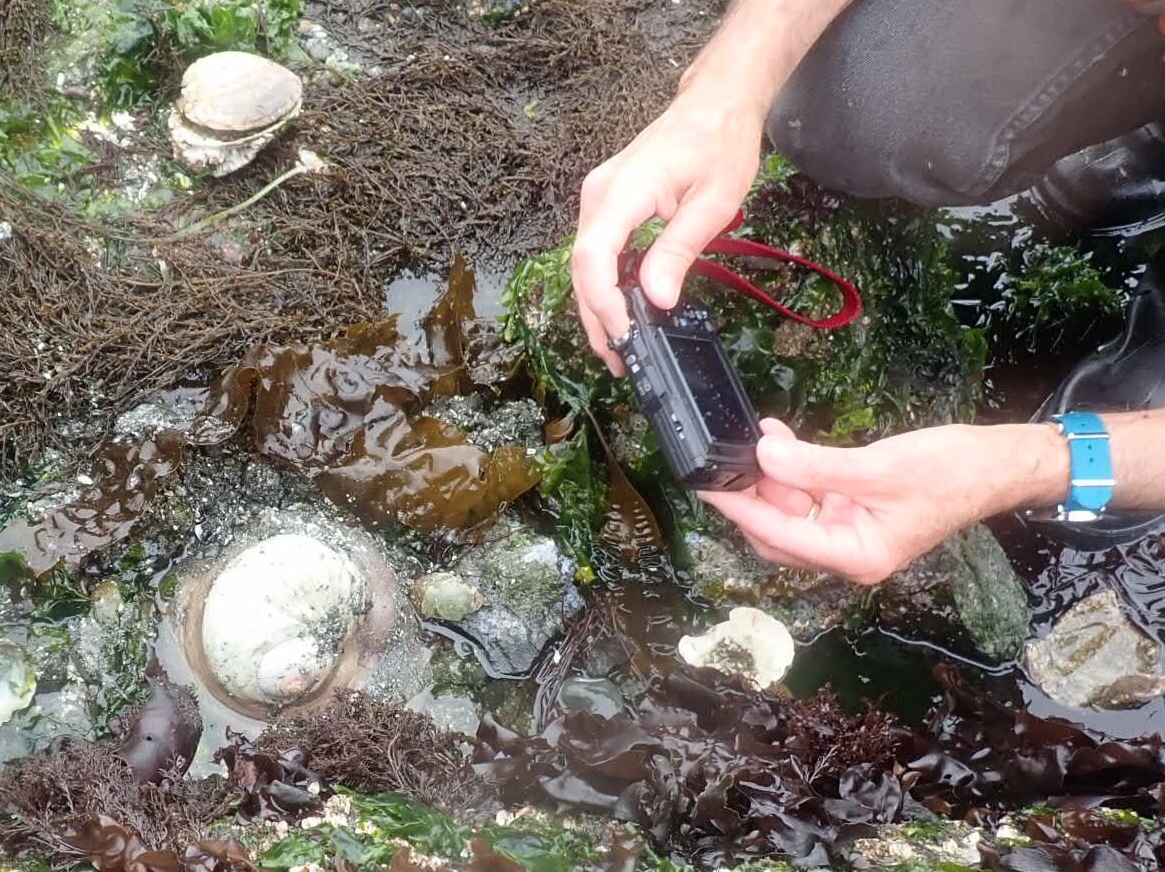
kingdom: Animalia
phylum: Mollusca
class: Gastropoda
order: Littorinimorpha
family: Naticidae
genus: Neverita
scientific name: Neverita lewisii
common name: Lewis' moonsnail
